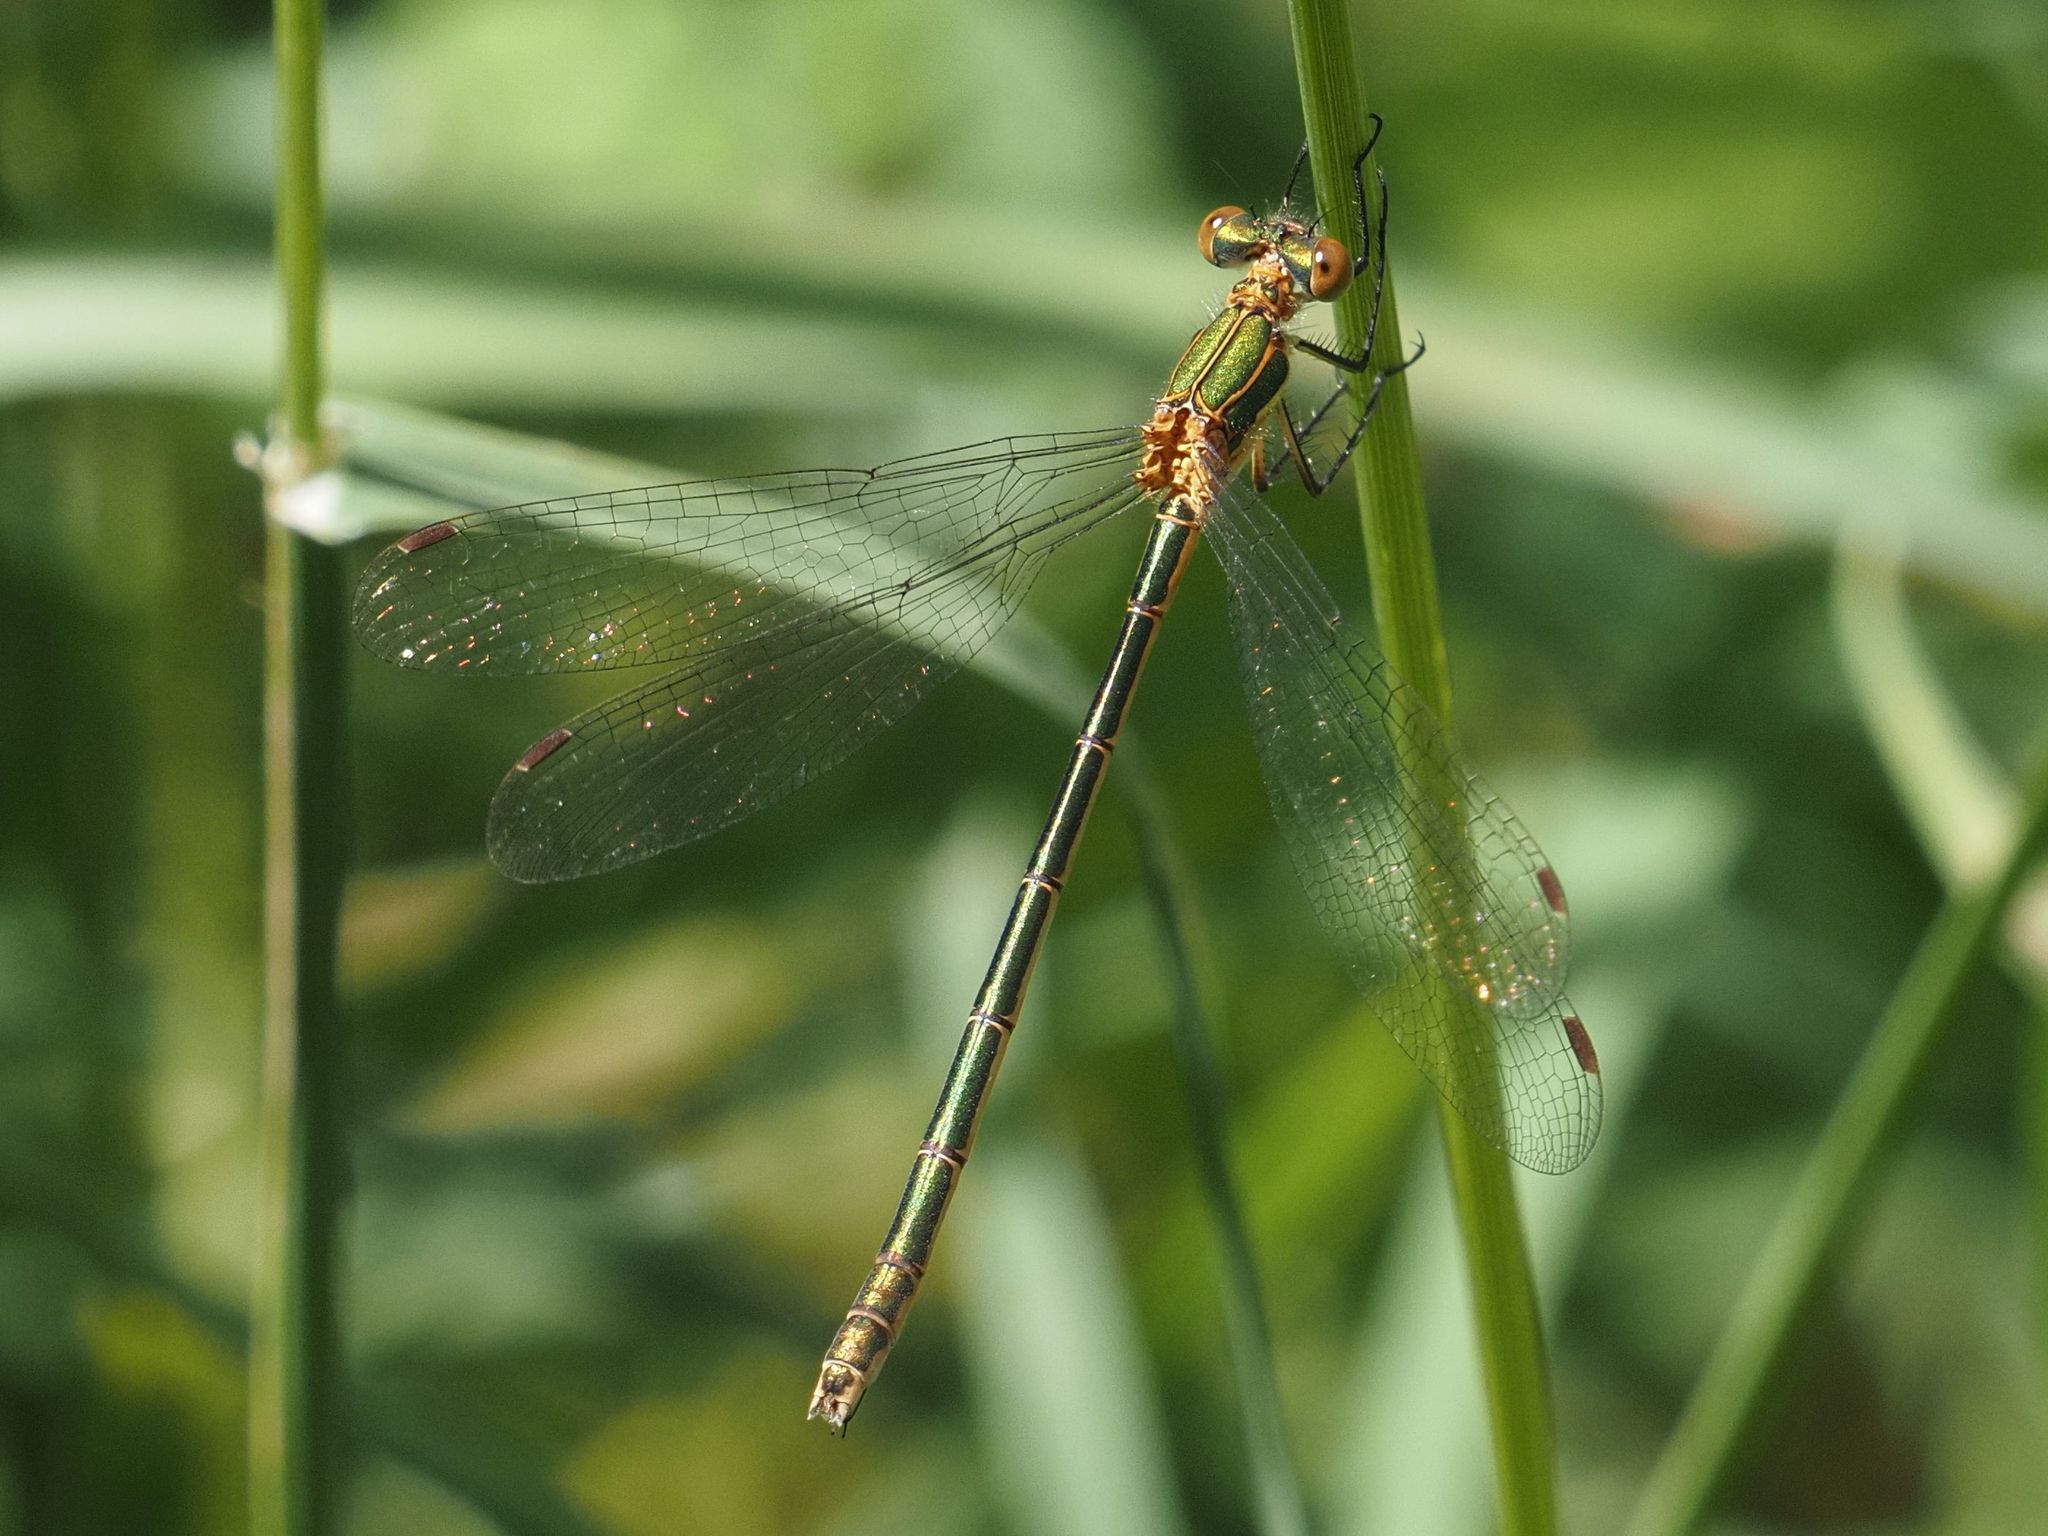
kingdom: Animalia
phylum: Arthropoda
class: Insecta
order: Odonata
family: Lestidae
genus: Lestes
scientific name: Lestes sponsa
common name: Common spreadwing
